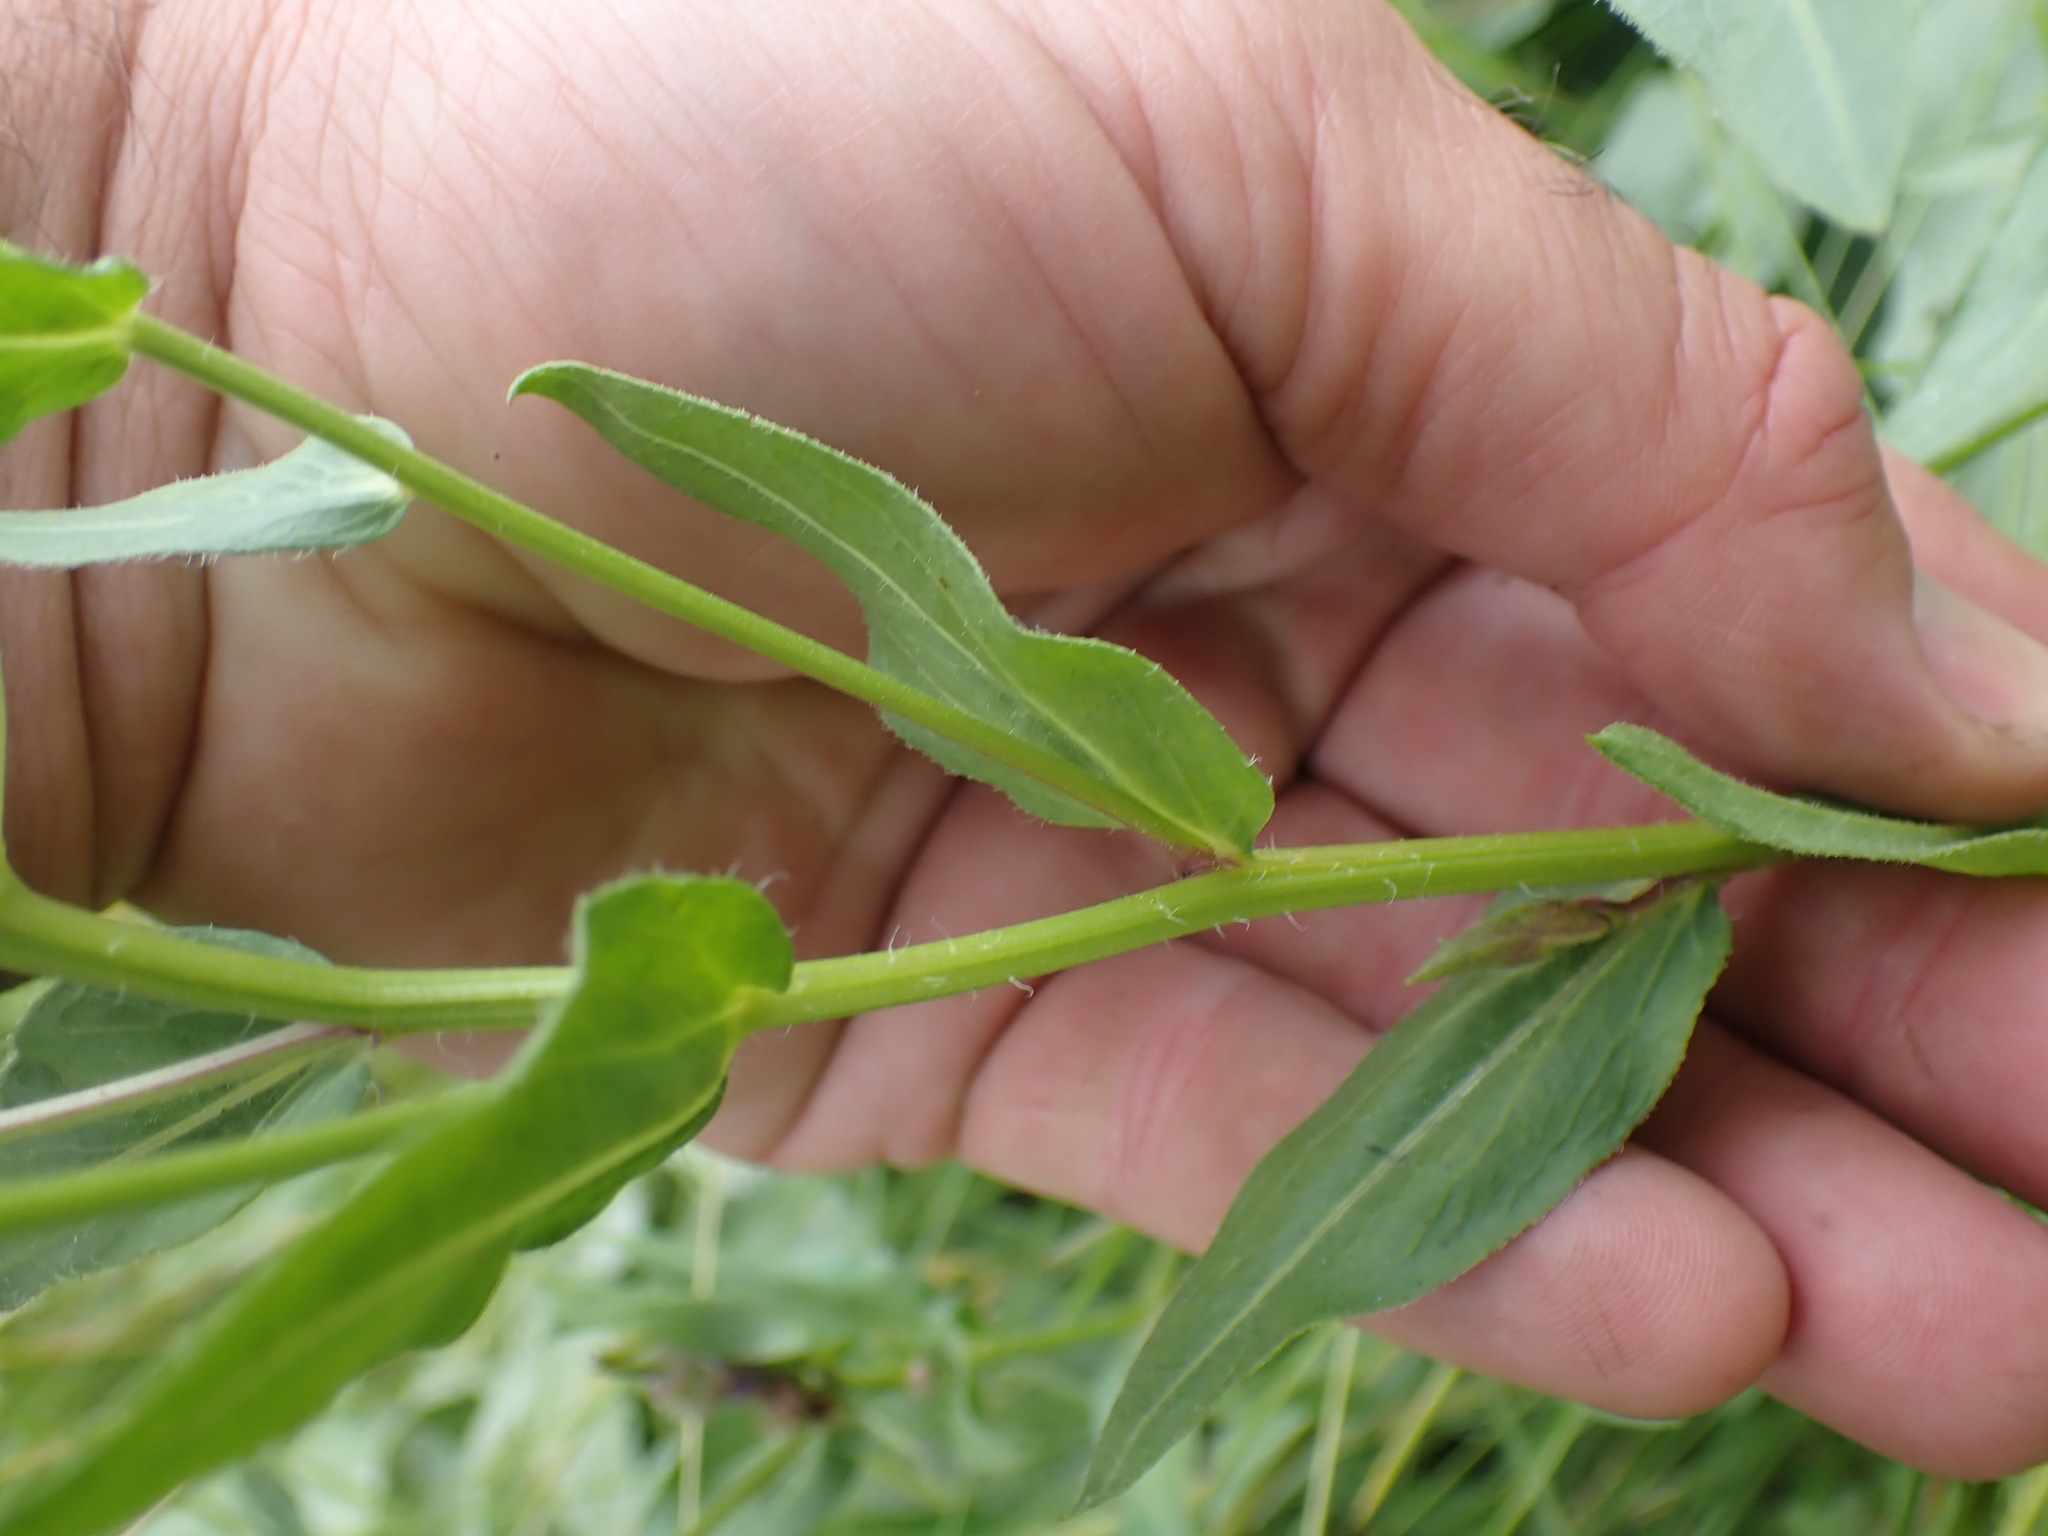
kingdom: Plantae
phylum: Tracheophyta
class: Magnoliopsida
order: Asterales
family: Asteraceae
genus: Erigeron
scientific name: Erigeron speciosus
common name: Aspen fleabane
